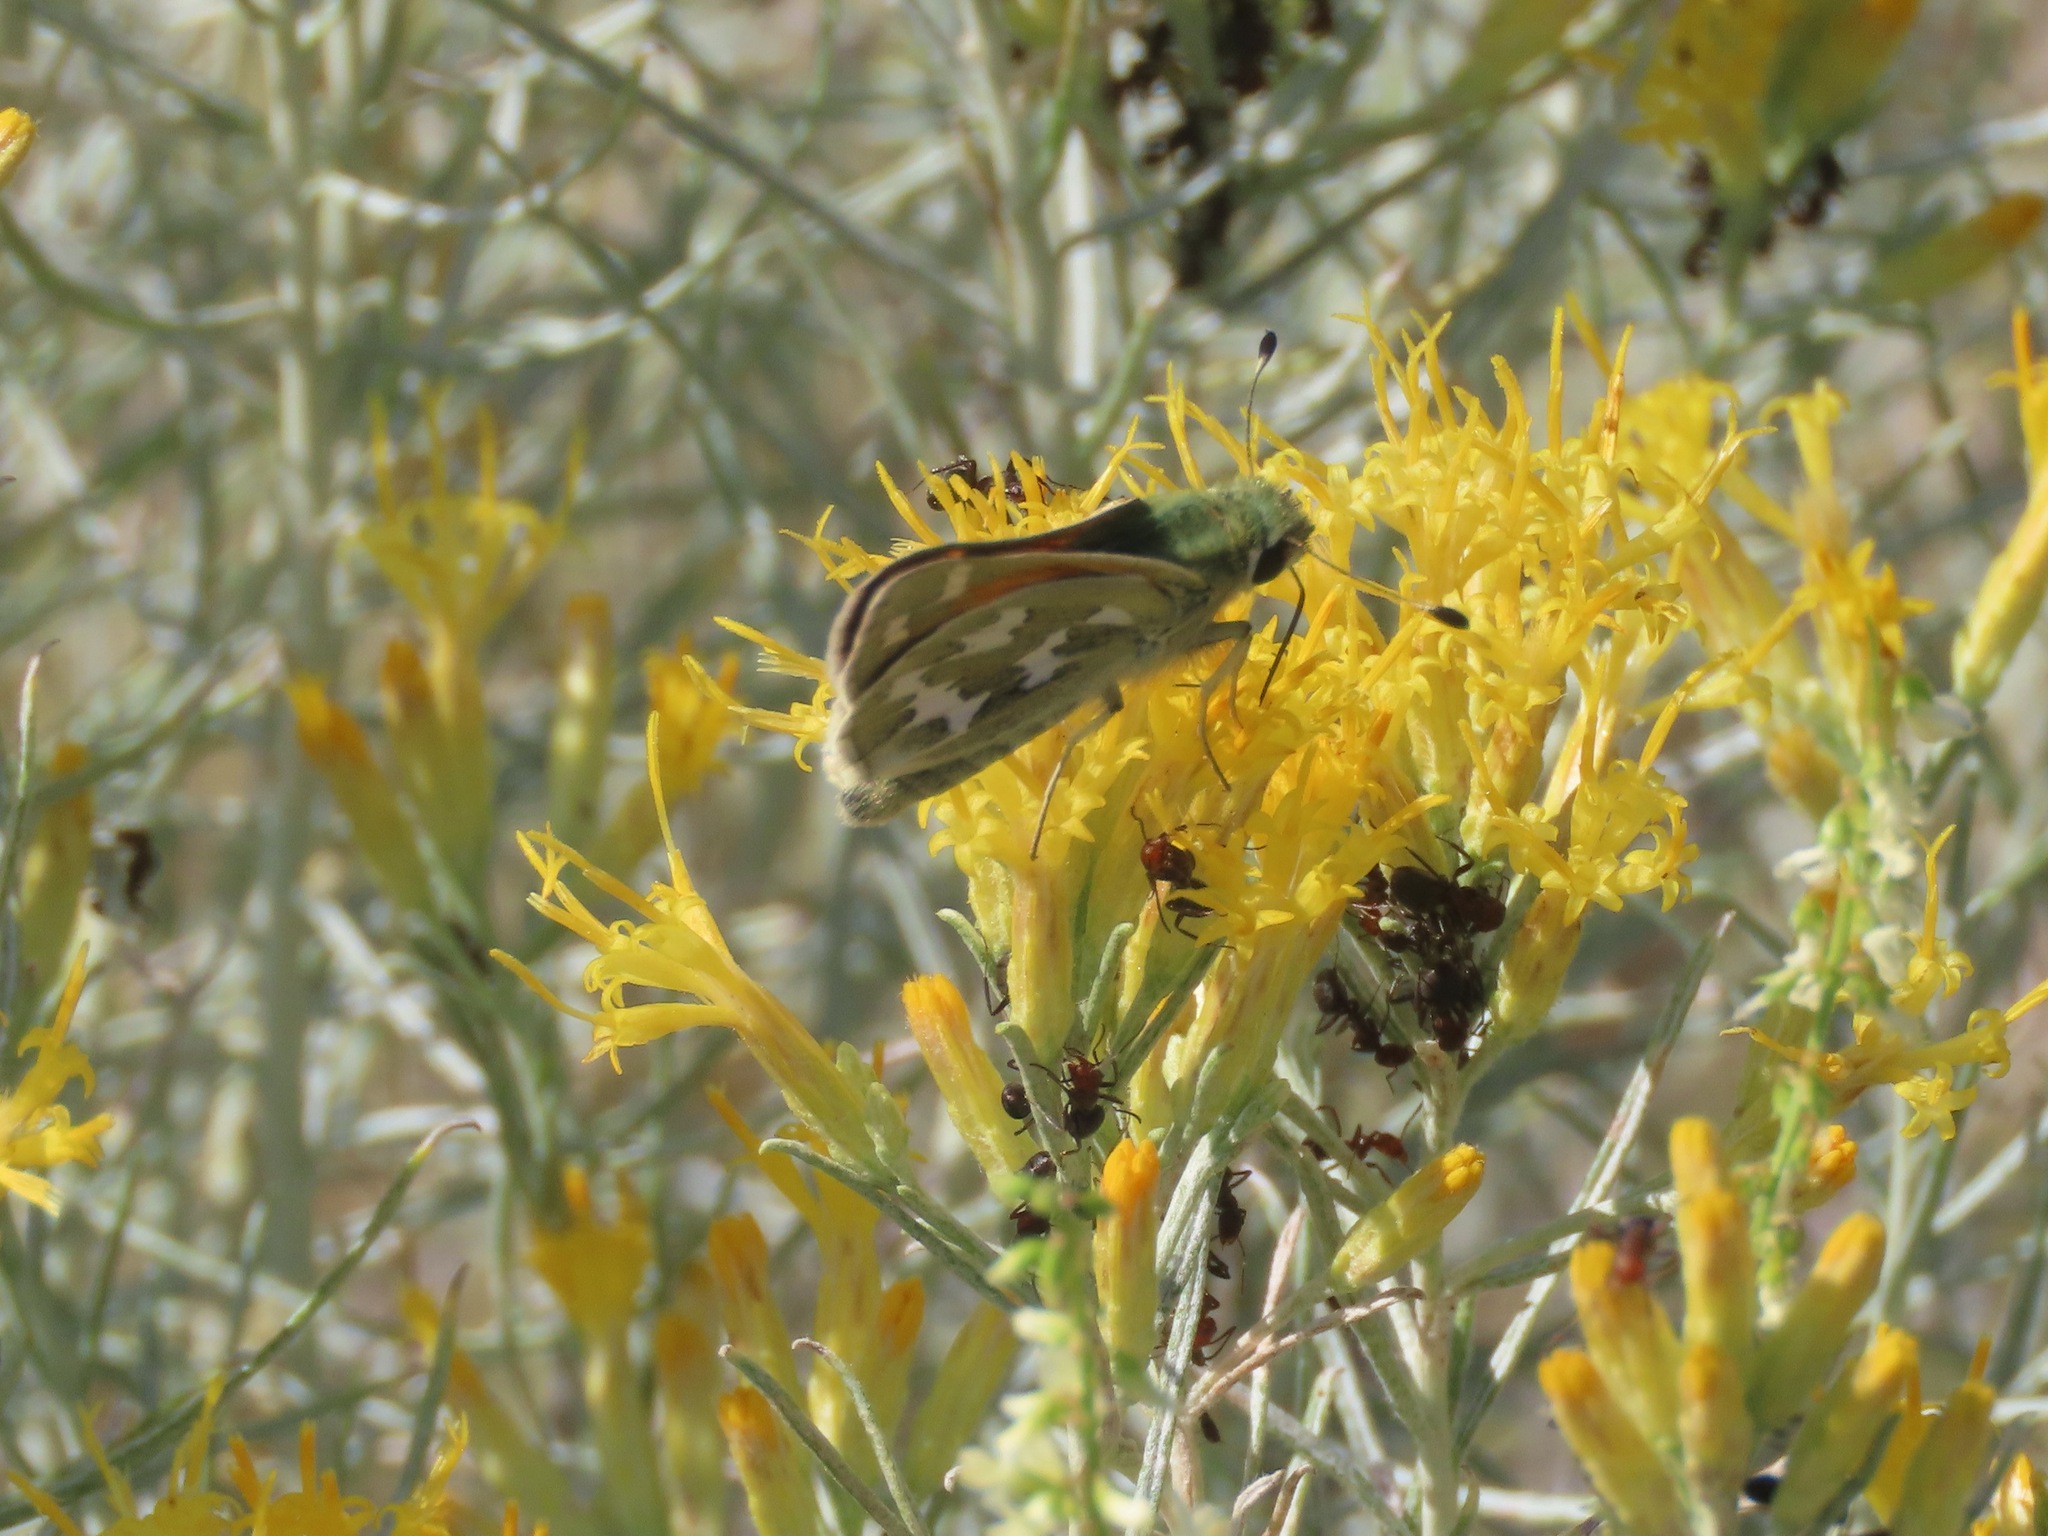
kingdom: Animalia
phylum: Arthropoda
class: Insecta
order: Lepidoptera
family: Hesperiidae
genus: Hesperia
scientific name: Hesperia juba
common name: Juba skipper
